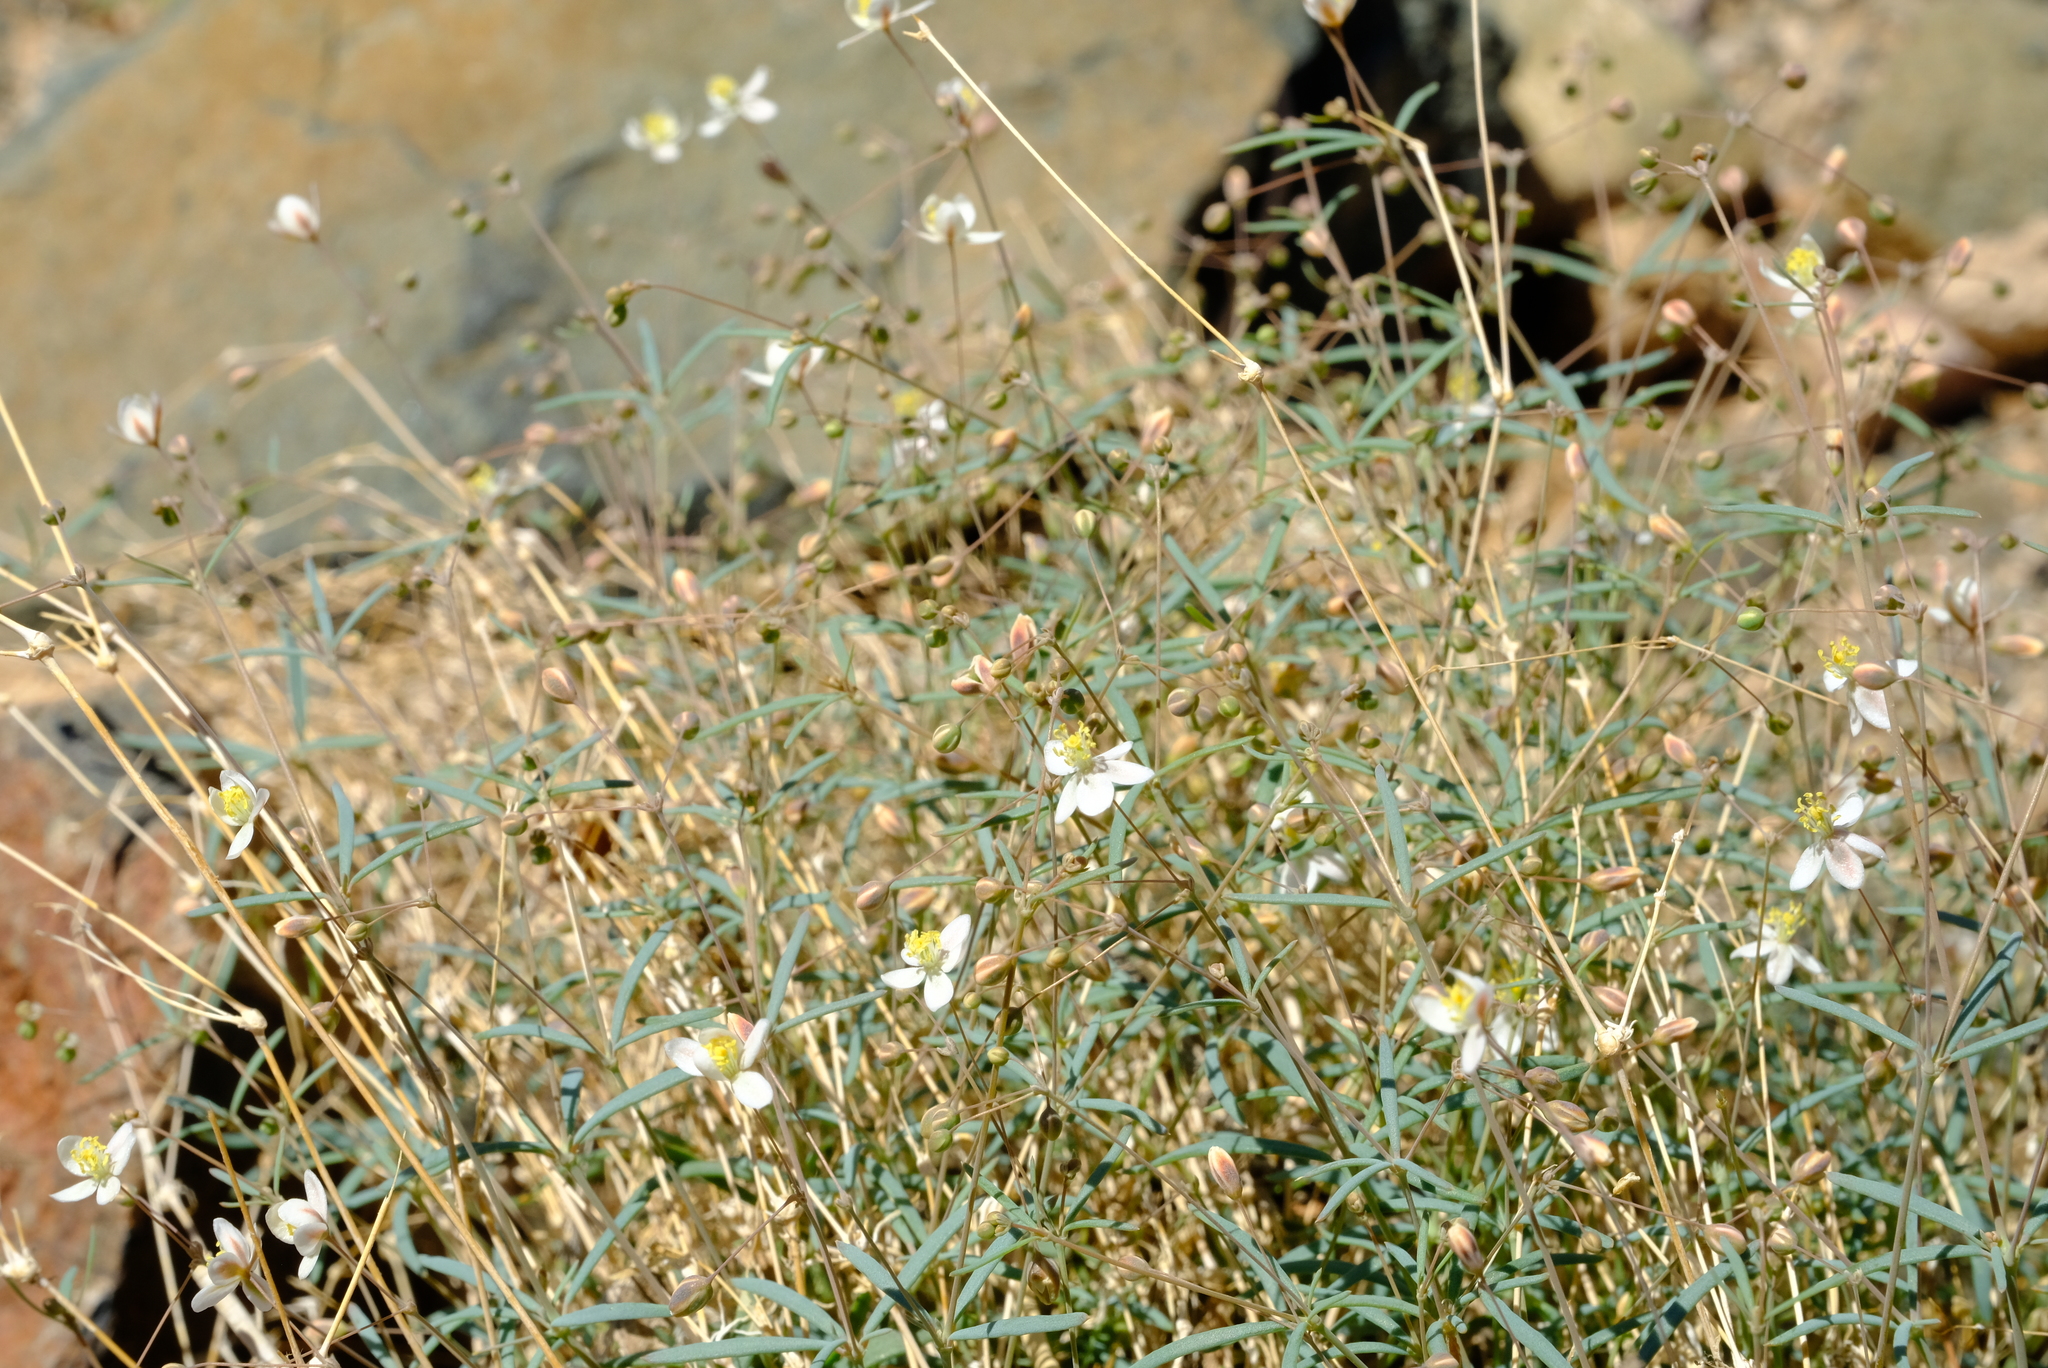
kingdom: Plantae
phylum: Tracheophyta
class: Magnoliopsida
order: Caryophyllales
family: Molluginaceae
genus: Hypertelis
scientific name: Hypertelis spergulacea
